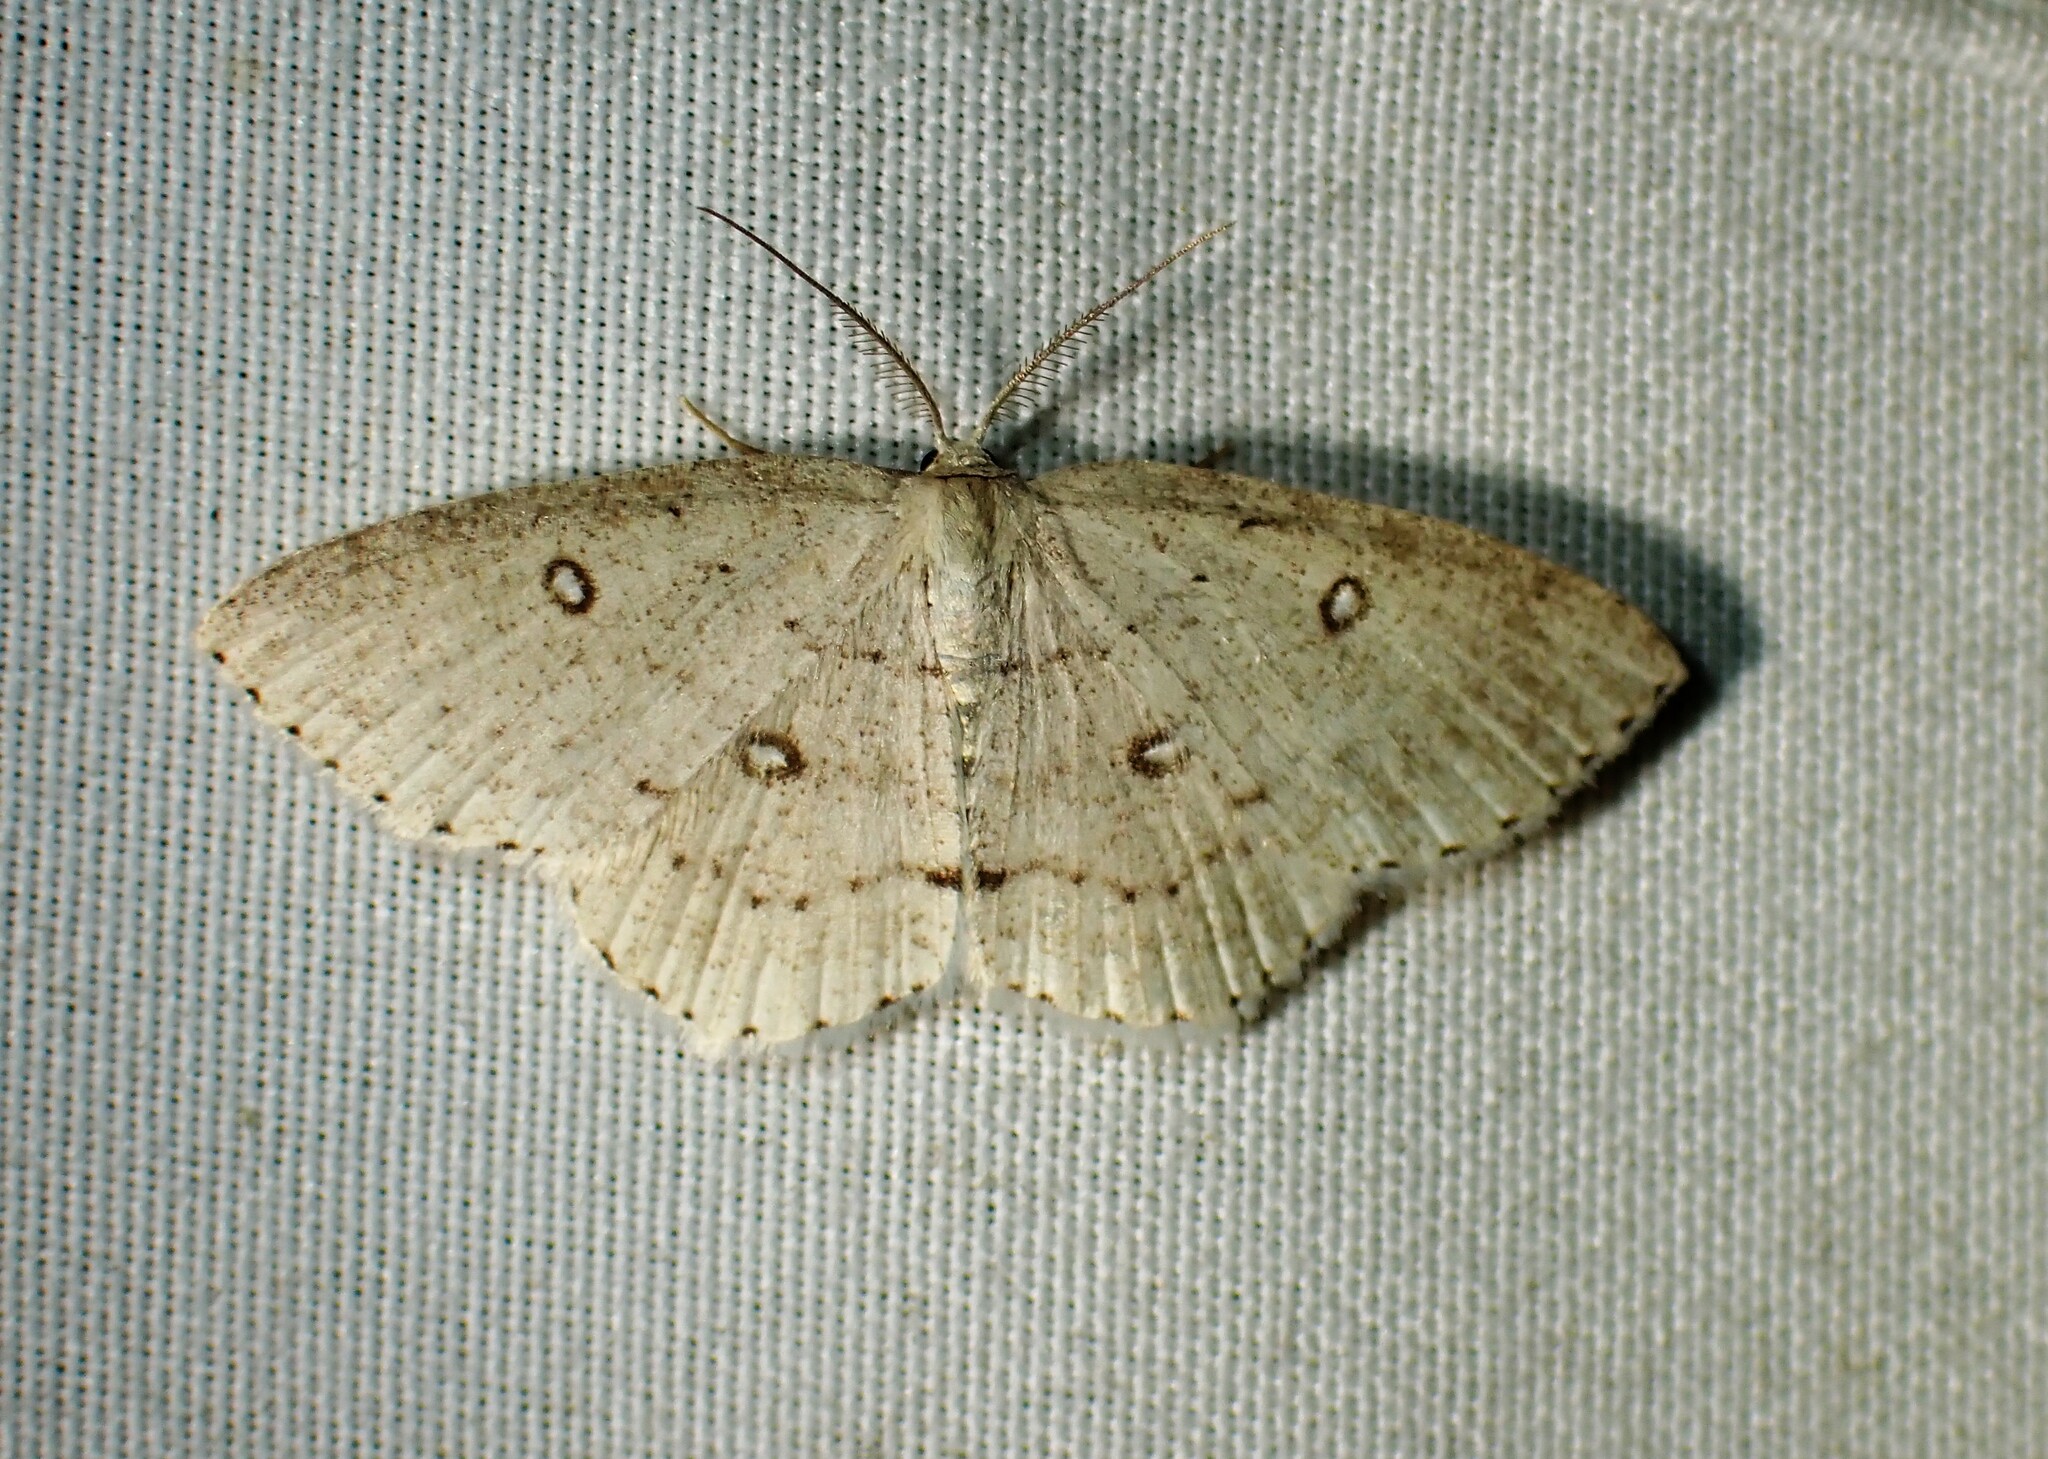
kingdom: Animalia
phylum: Arthropoda
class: Insecta
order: Lepidoptera
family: Geometridae
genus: Cyclophora
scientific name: Cyclophora pendulinaria
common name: Sweet fern geometer
